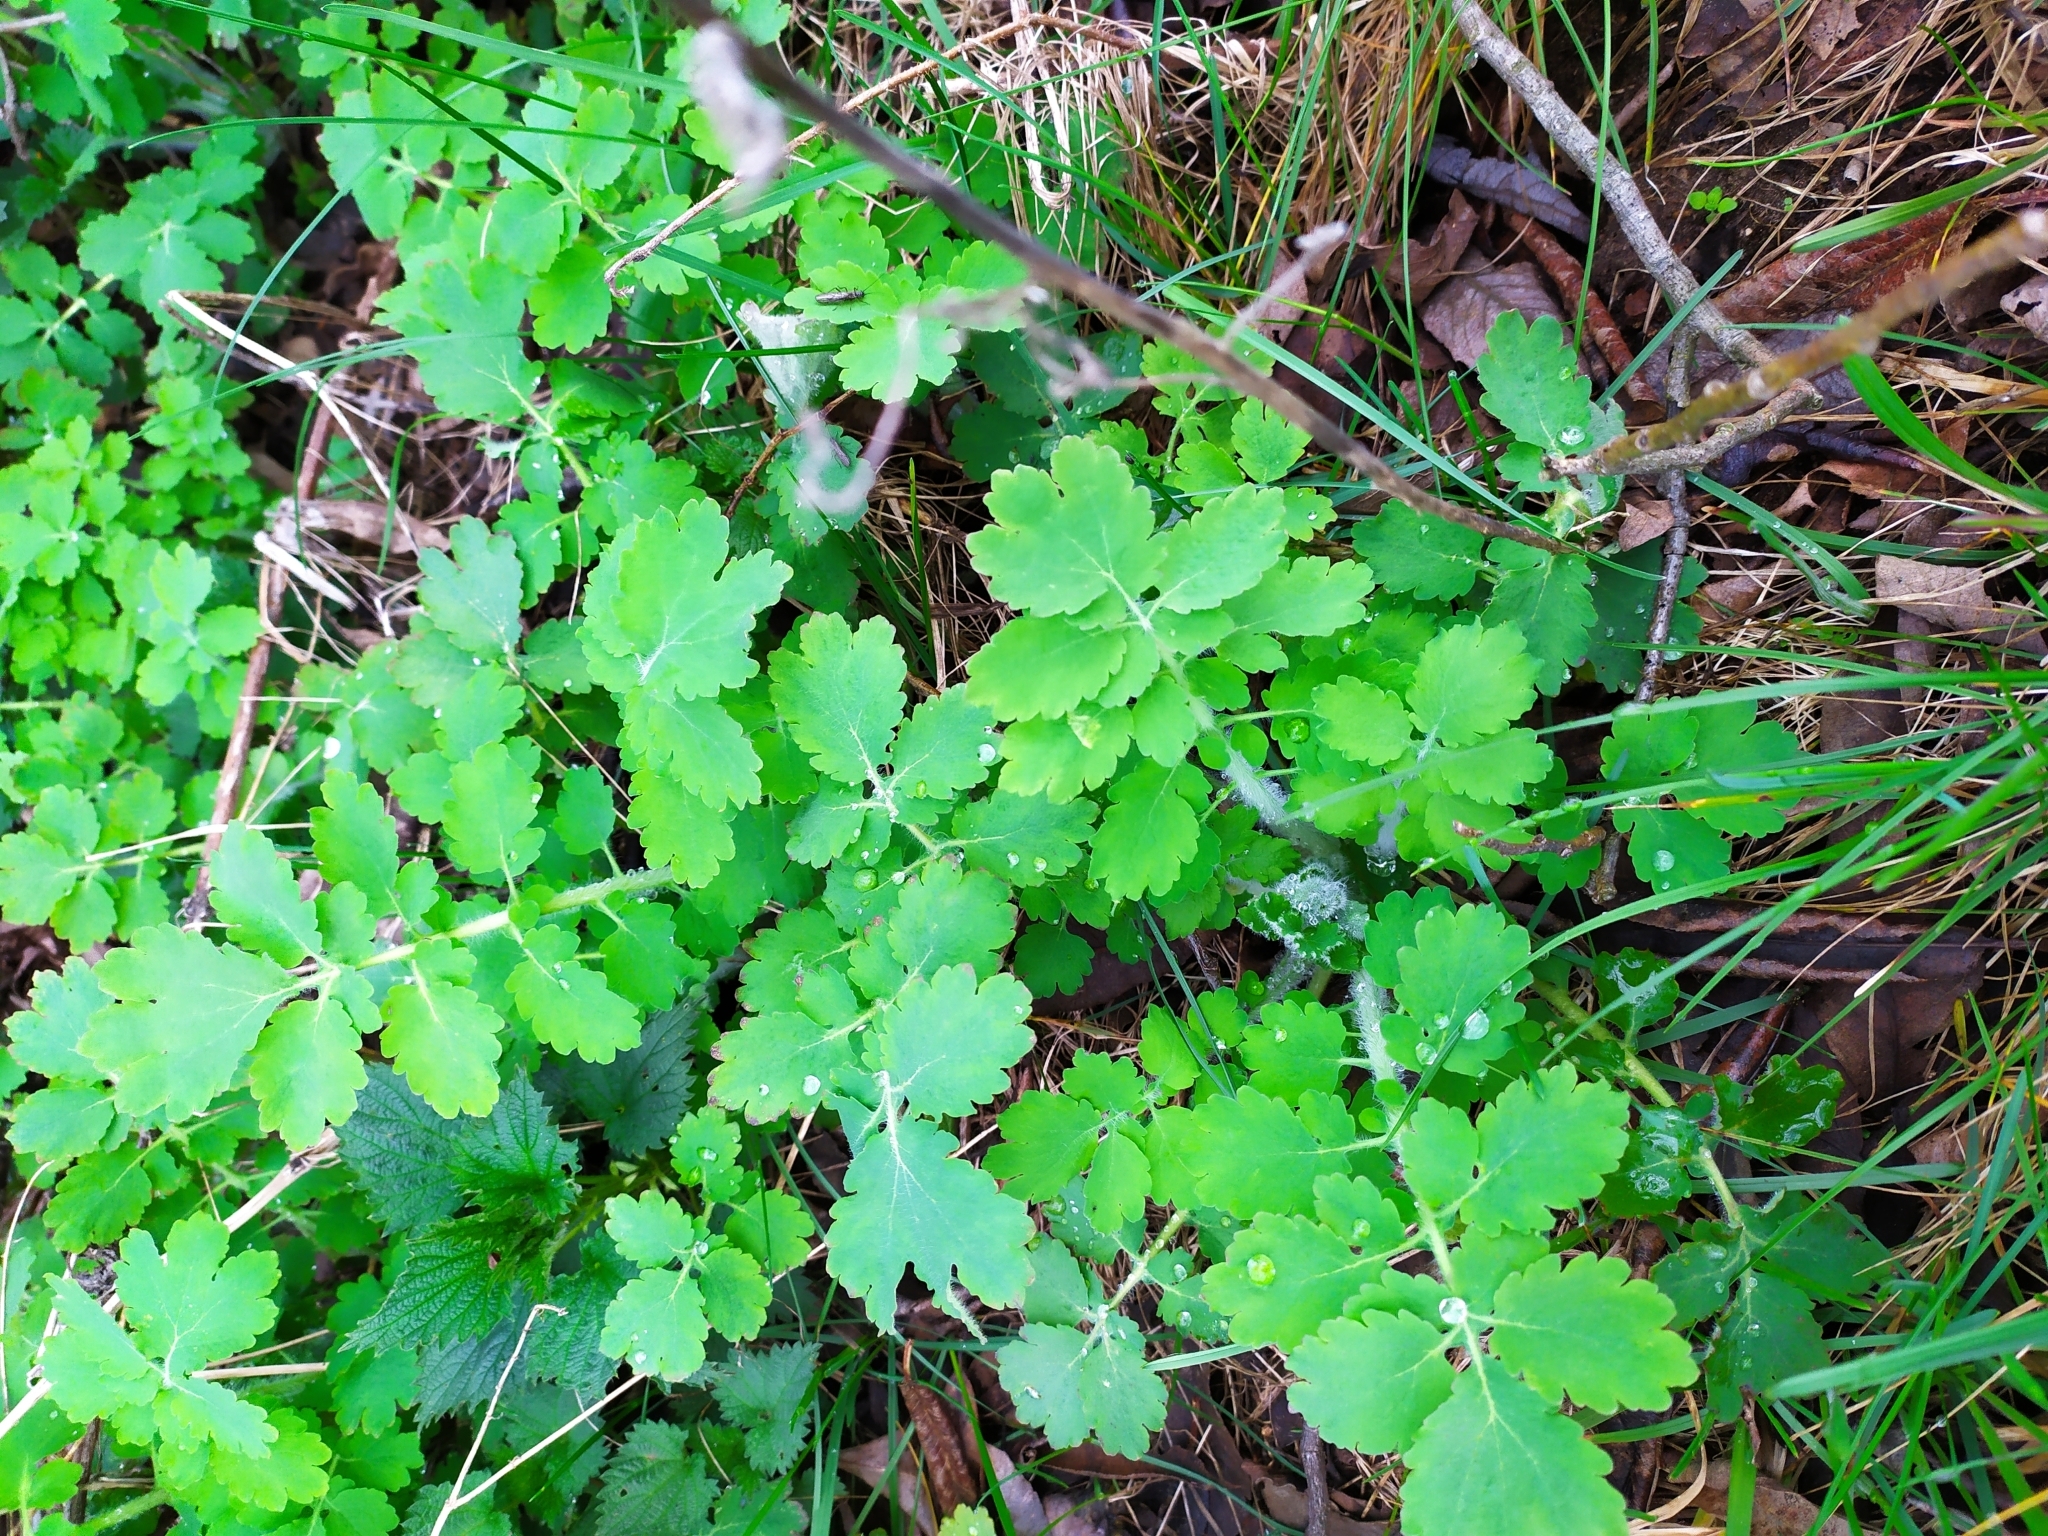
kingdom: Plantae
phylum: Tracheophyta
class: Magnoliopsida
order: Ranunculales
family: Papaveraceae
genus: Chelidonium
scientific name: Chelidonium majus
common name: Greater celandine
